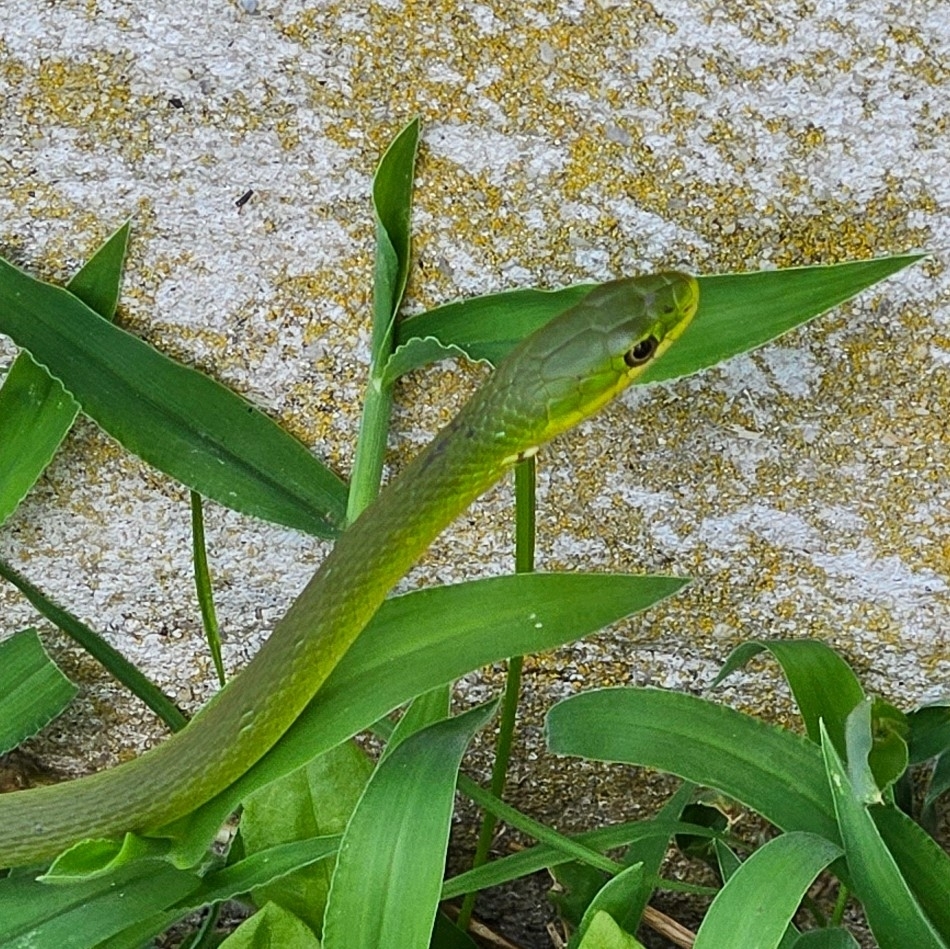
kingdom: Animalia
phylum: Chordata
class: Squamata
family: Colubridae
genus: Opheodrys
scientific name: Opheodrys aestivus
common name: Rough greensnake
